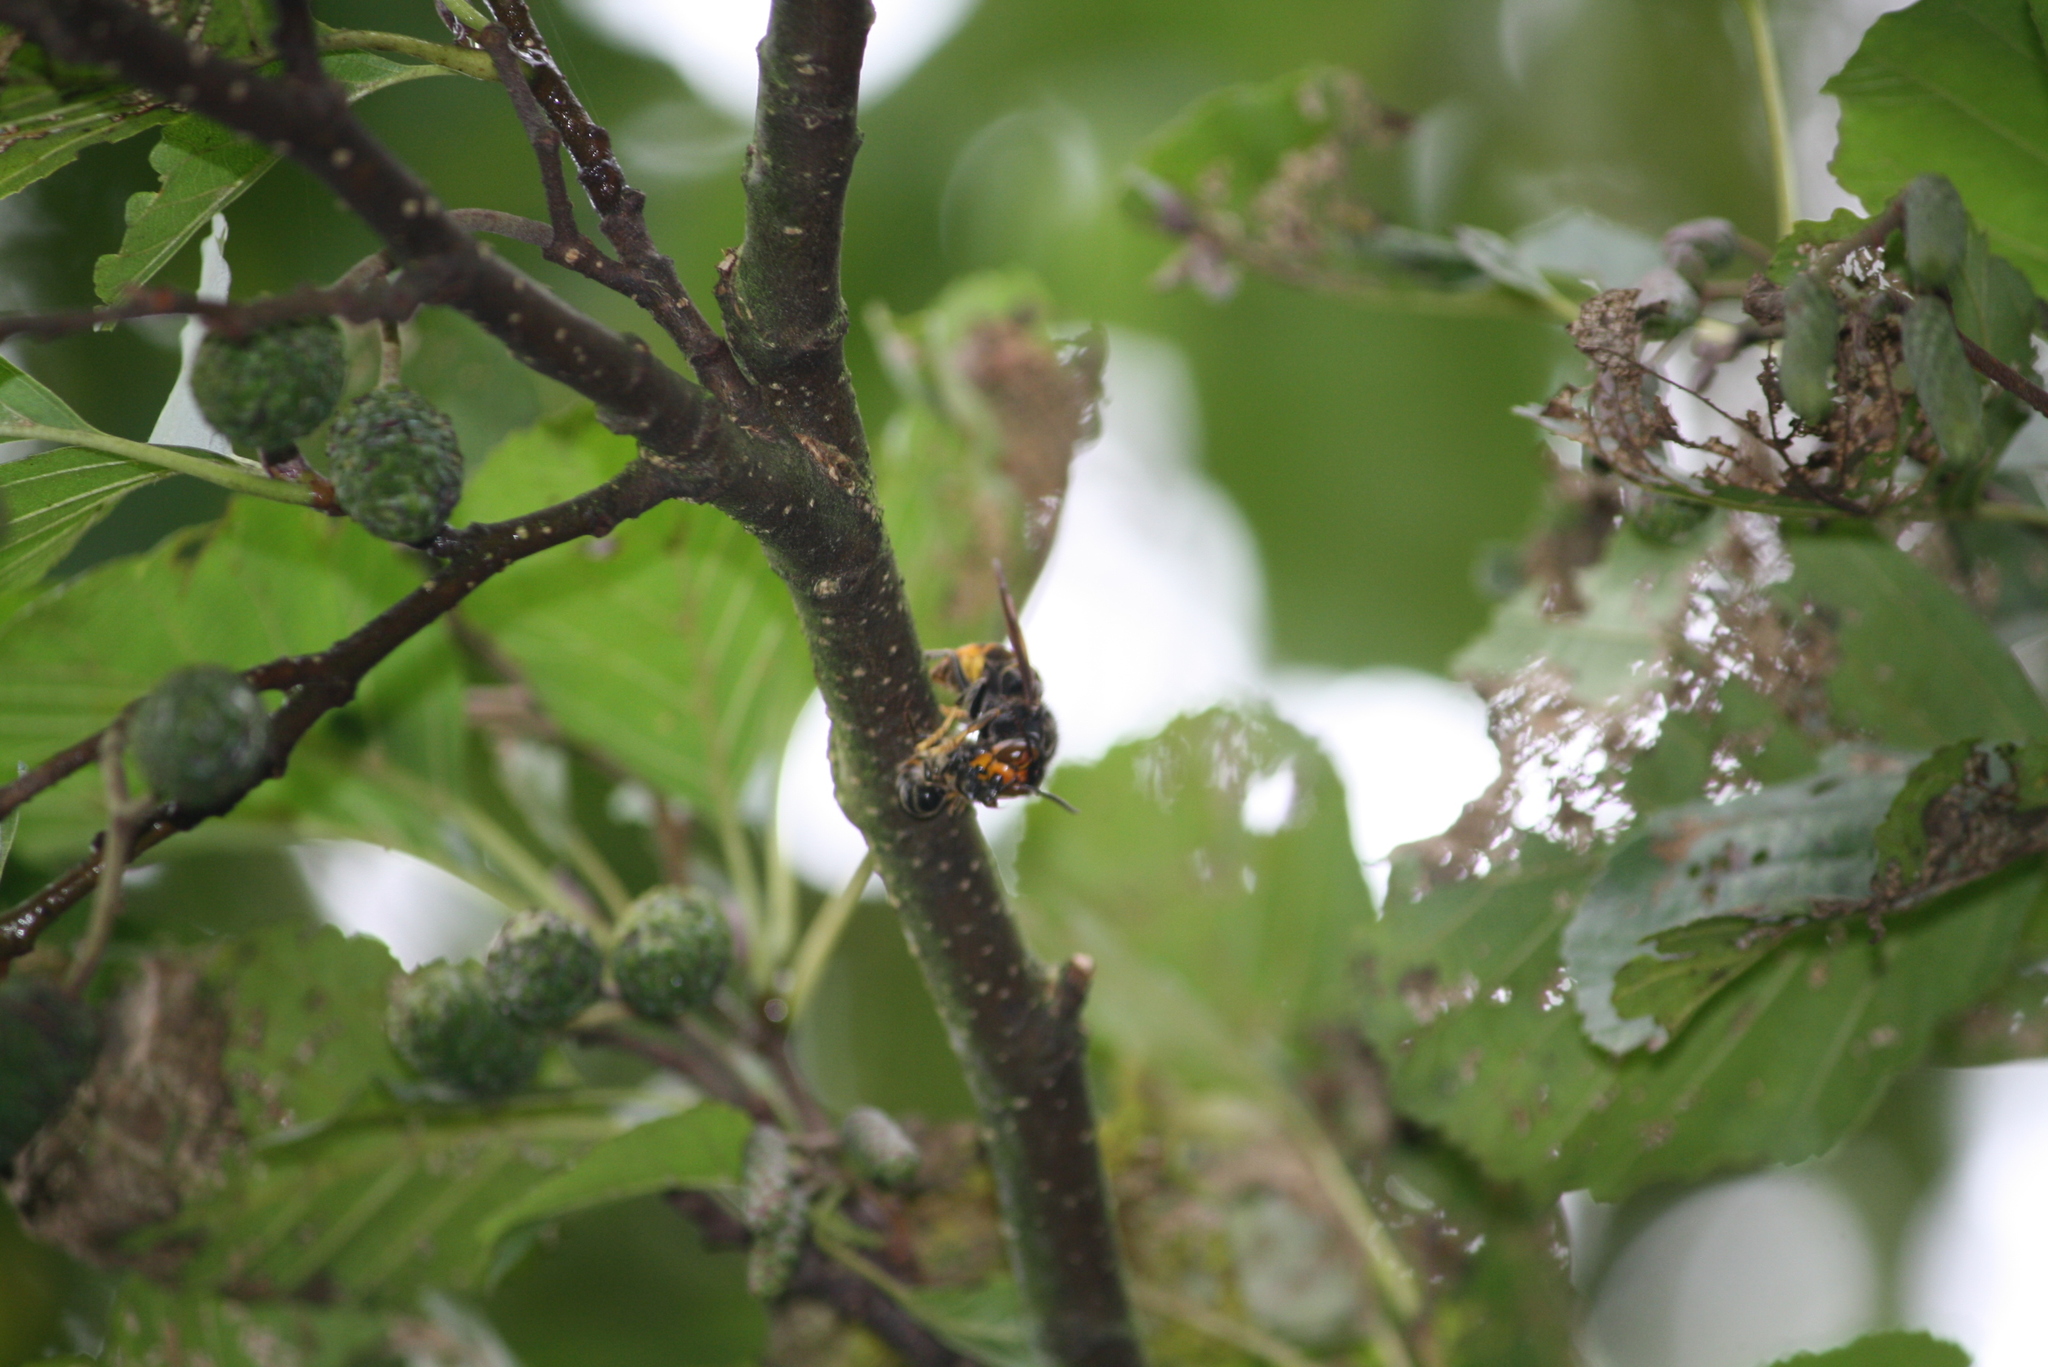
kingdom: Animalia
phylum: Arthropoda
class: Insecta
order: Hymenoptera
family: Vespidae
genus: Vespa
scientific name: Vespa velutina
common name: Asian hornet
